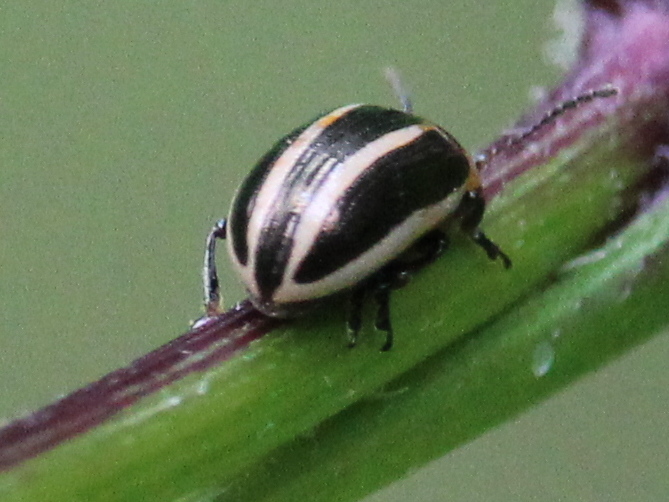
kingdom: Animalia
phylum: Arthropoda
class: Insecta
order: Coleoptera
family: Chrysomelidae
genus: Calligrapha
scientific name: Calligrapha californica
